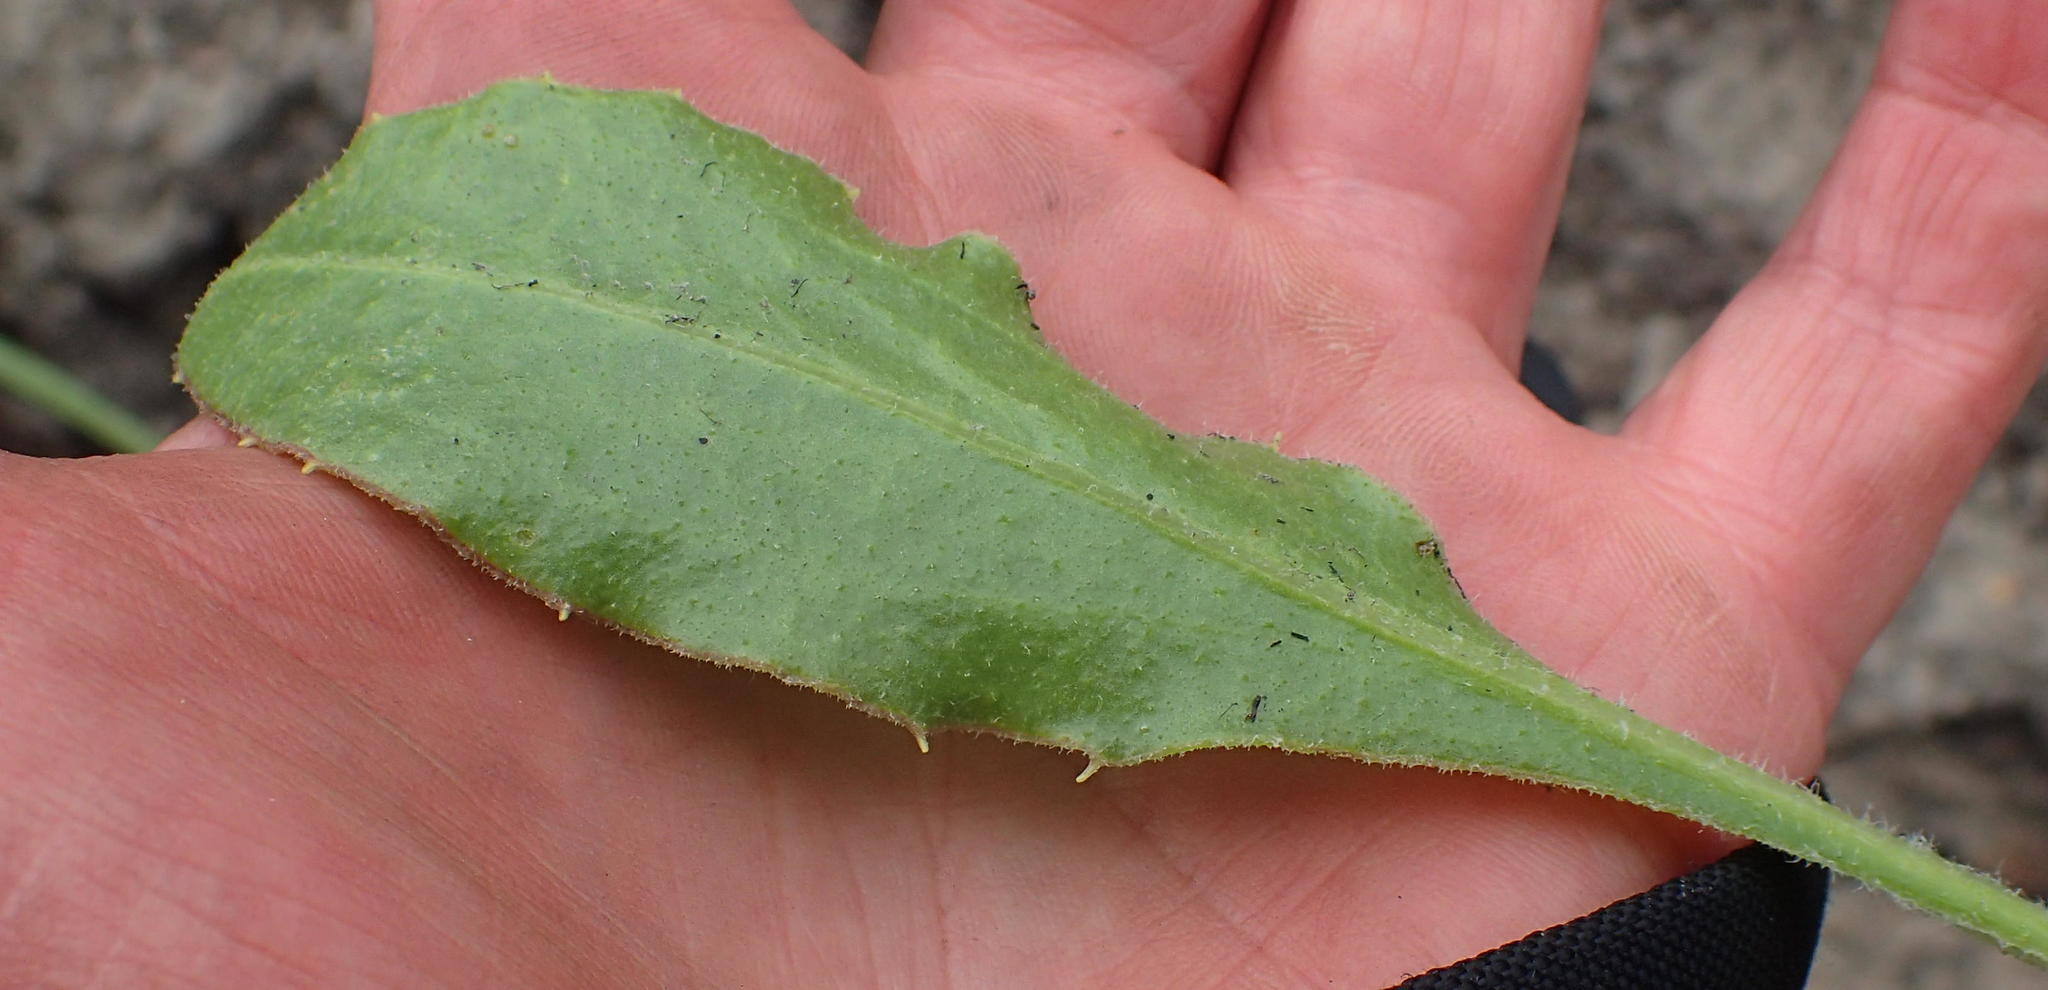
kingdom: Plantae
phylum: Tracheophyta
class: Magnoliopsida
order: Asterales
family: Asteraceae
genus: Osteospermum
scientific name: Osteospermum moniliferum
